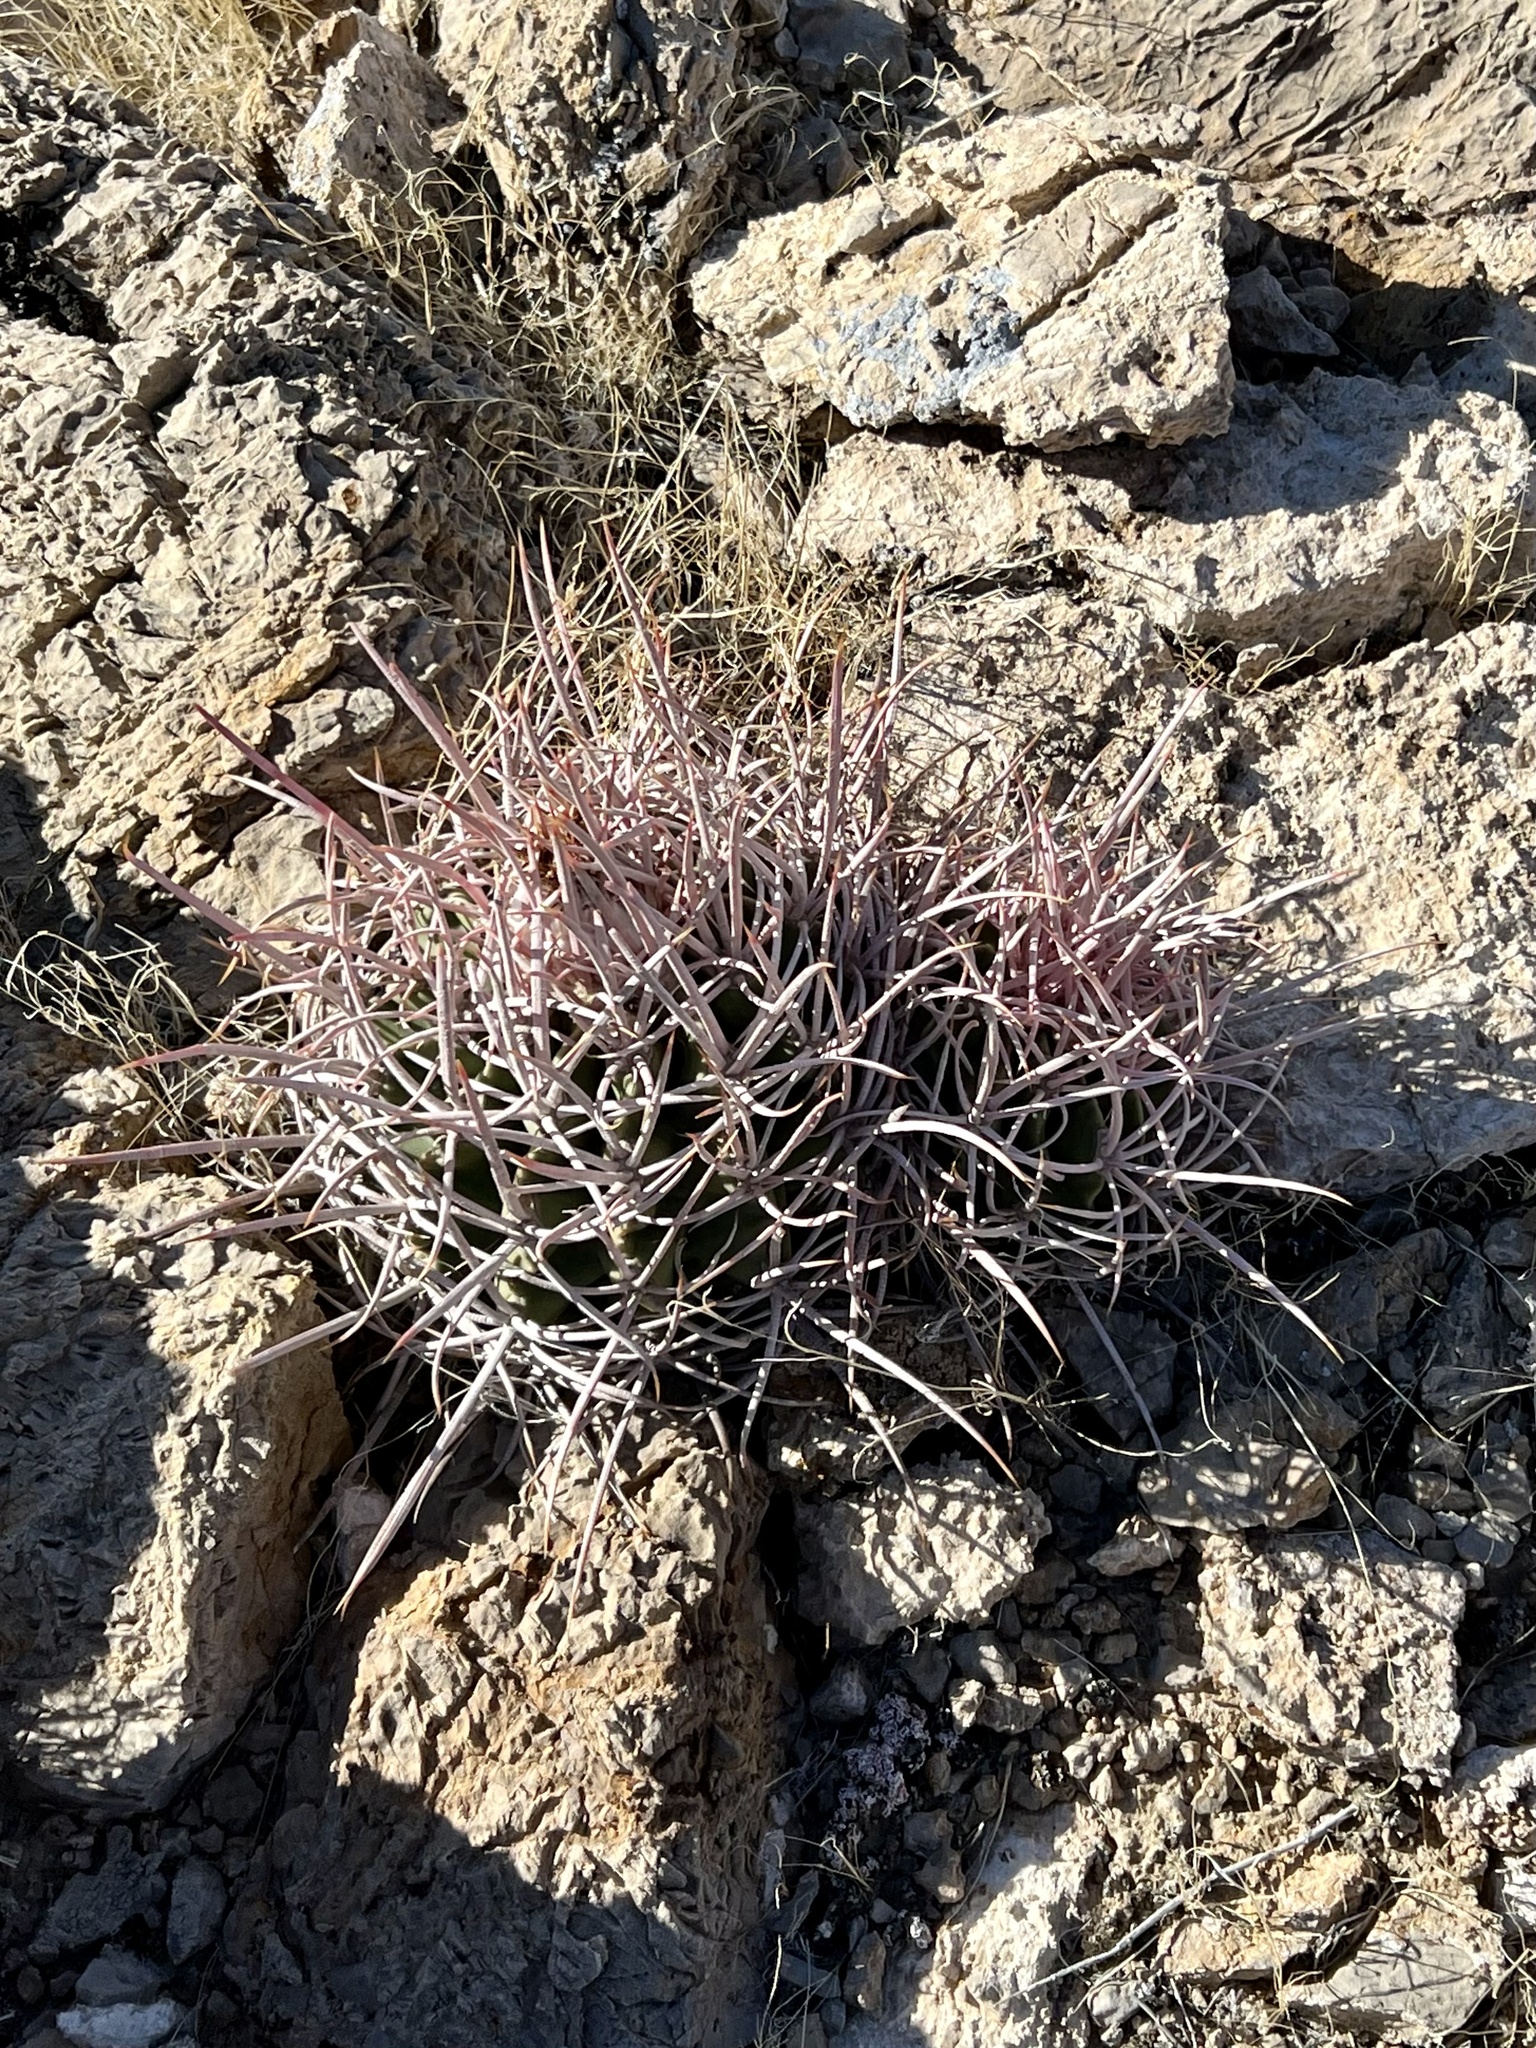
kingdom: Plantae
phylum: Tracheophyta
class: Magnoliopsida
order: Caryophyllales
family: Cactaceae
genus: Echinocactus
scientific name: Echinocactus polycephalus
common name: Cottontop cactus
